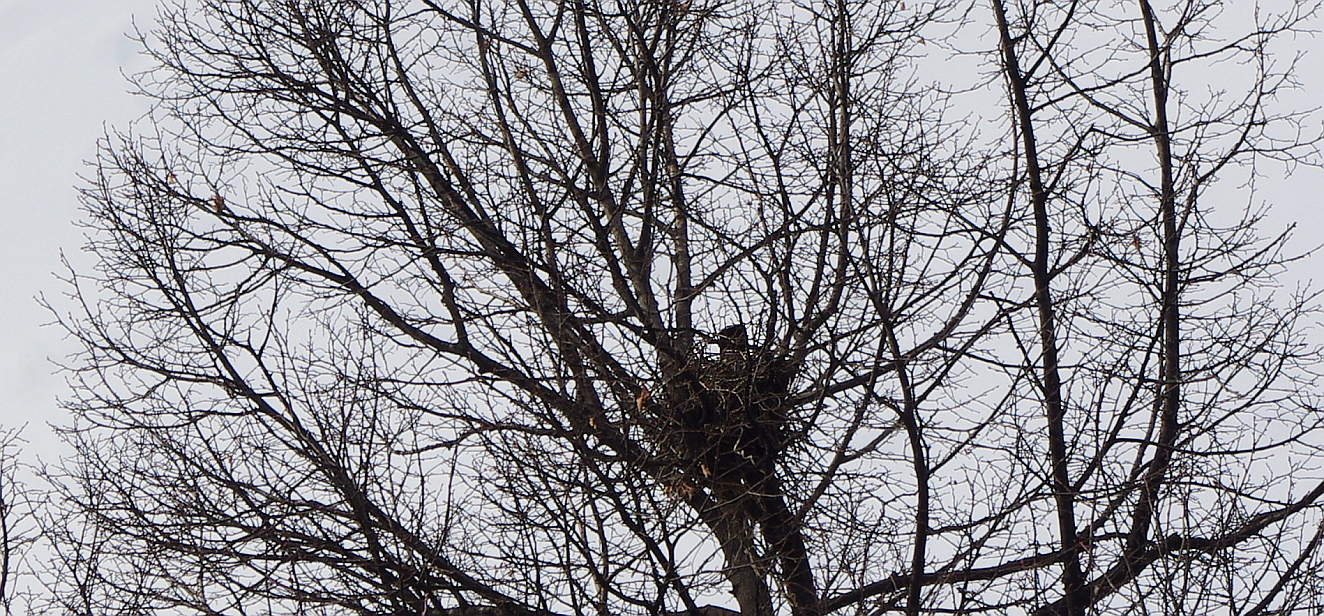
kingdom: Animalia
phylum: Chordata
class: Aves
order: Passeriformes
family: Corvidae
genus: Corvus
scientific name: Corvus cornix
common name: Hooded crow
